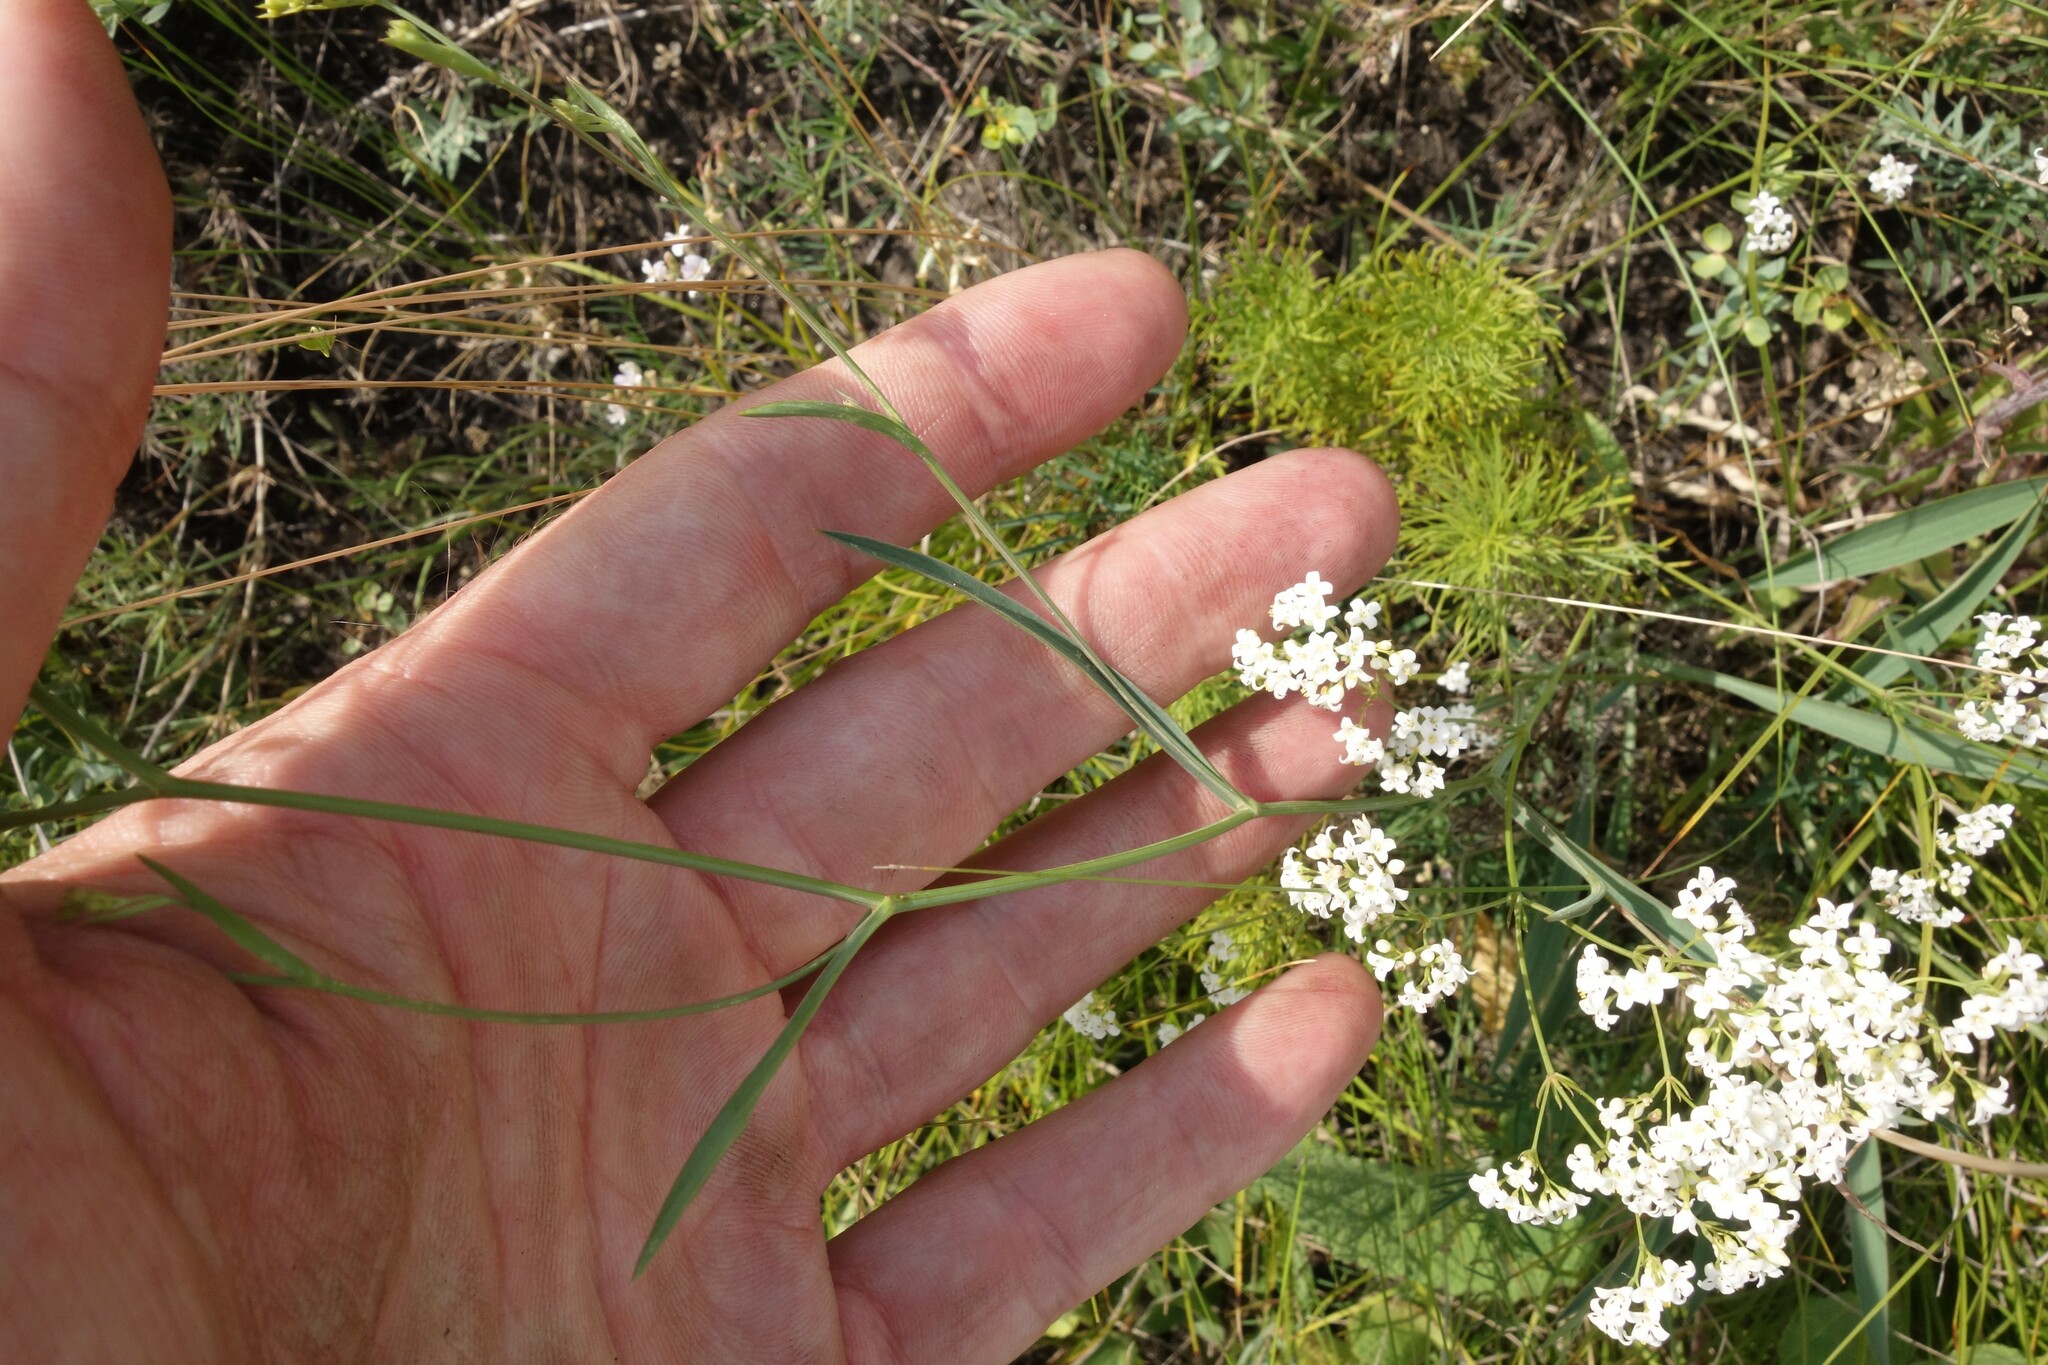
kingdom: Plantae
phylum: Tracheophyta
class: Magnoliopsida
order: Apiales
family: Apiaceae
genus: Bupleurum
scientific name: Bupleurum falcatum
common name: Sickle-leaved hare's-ear
